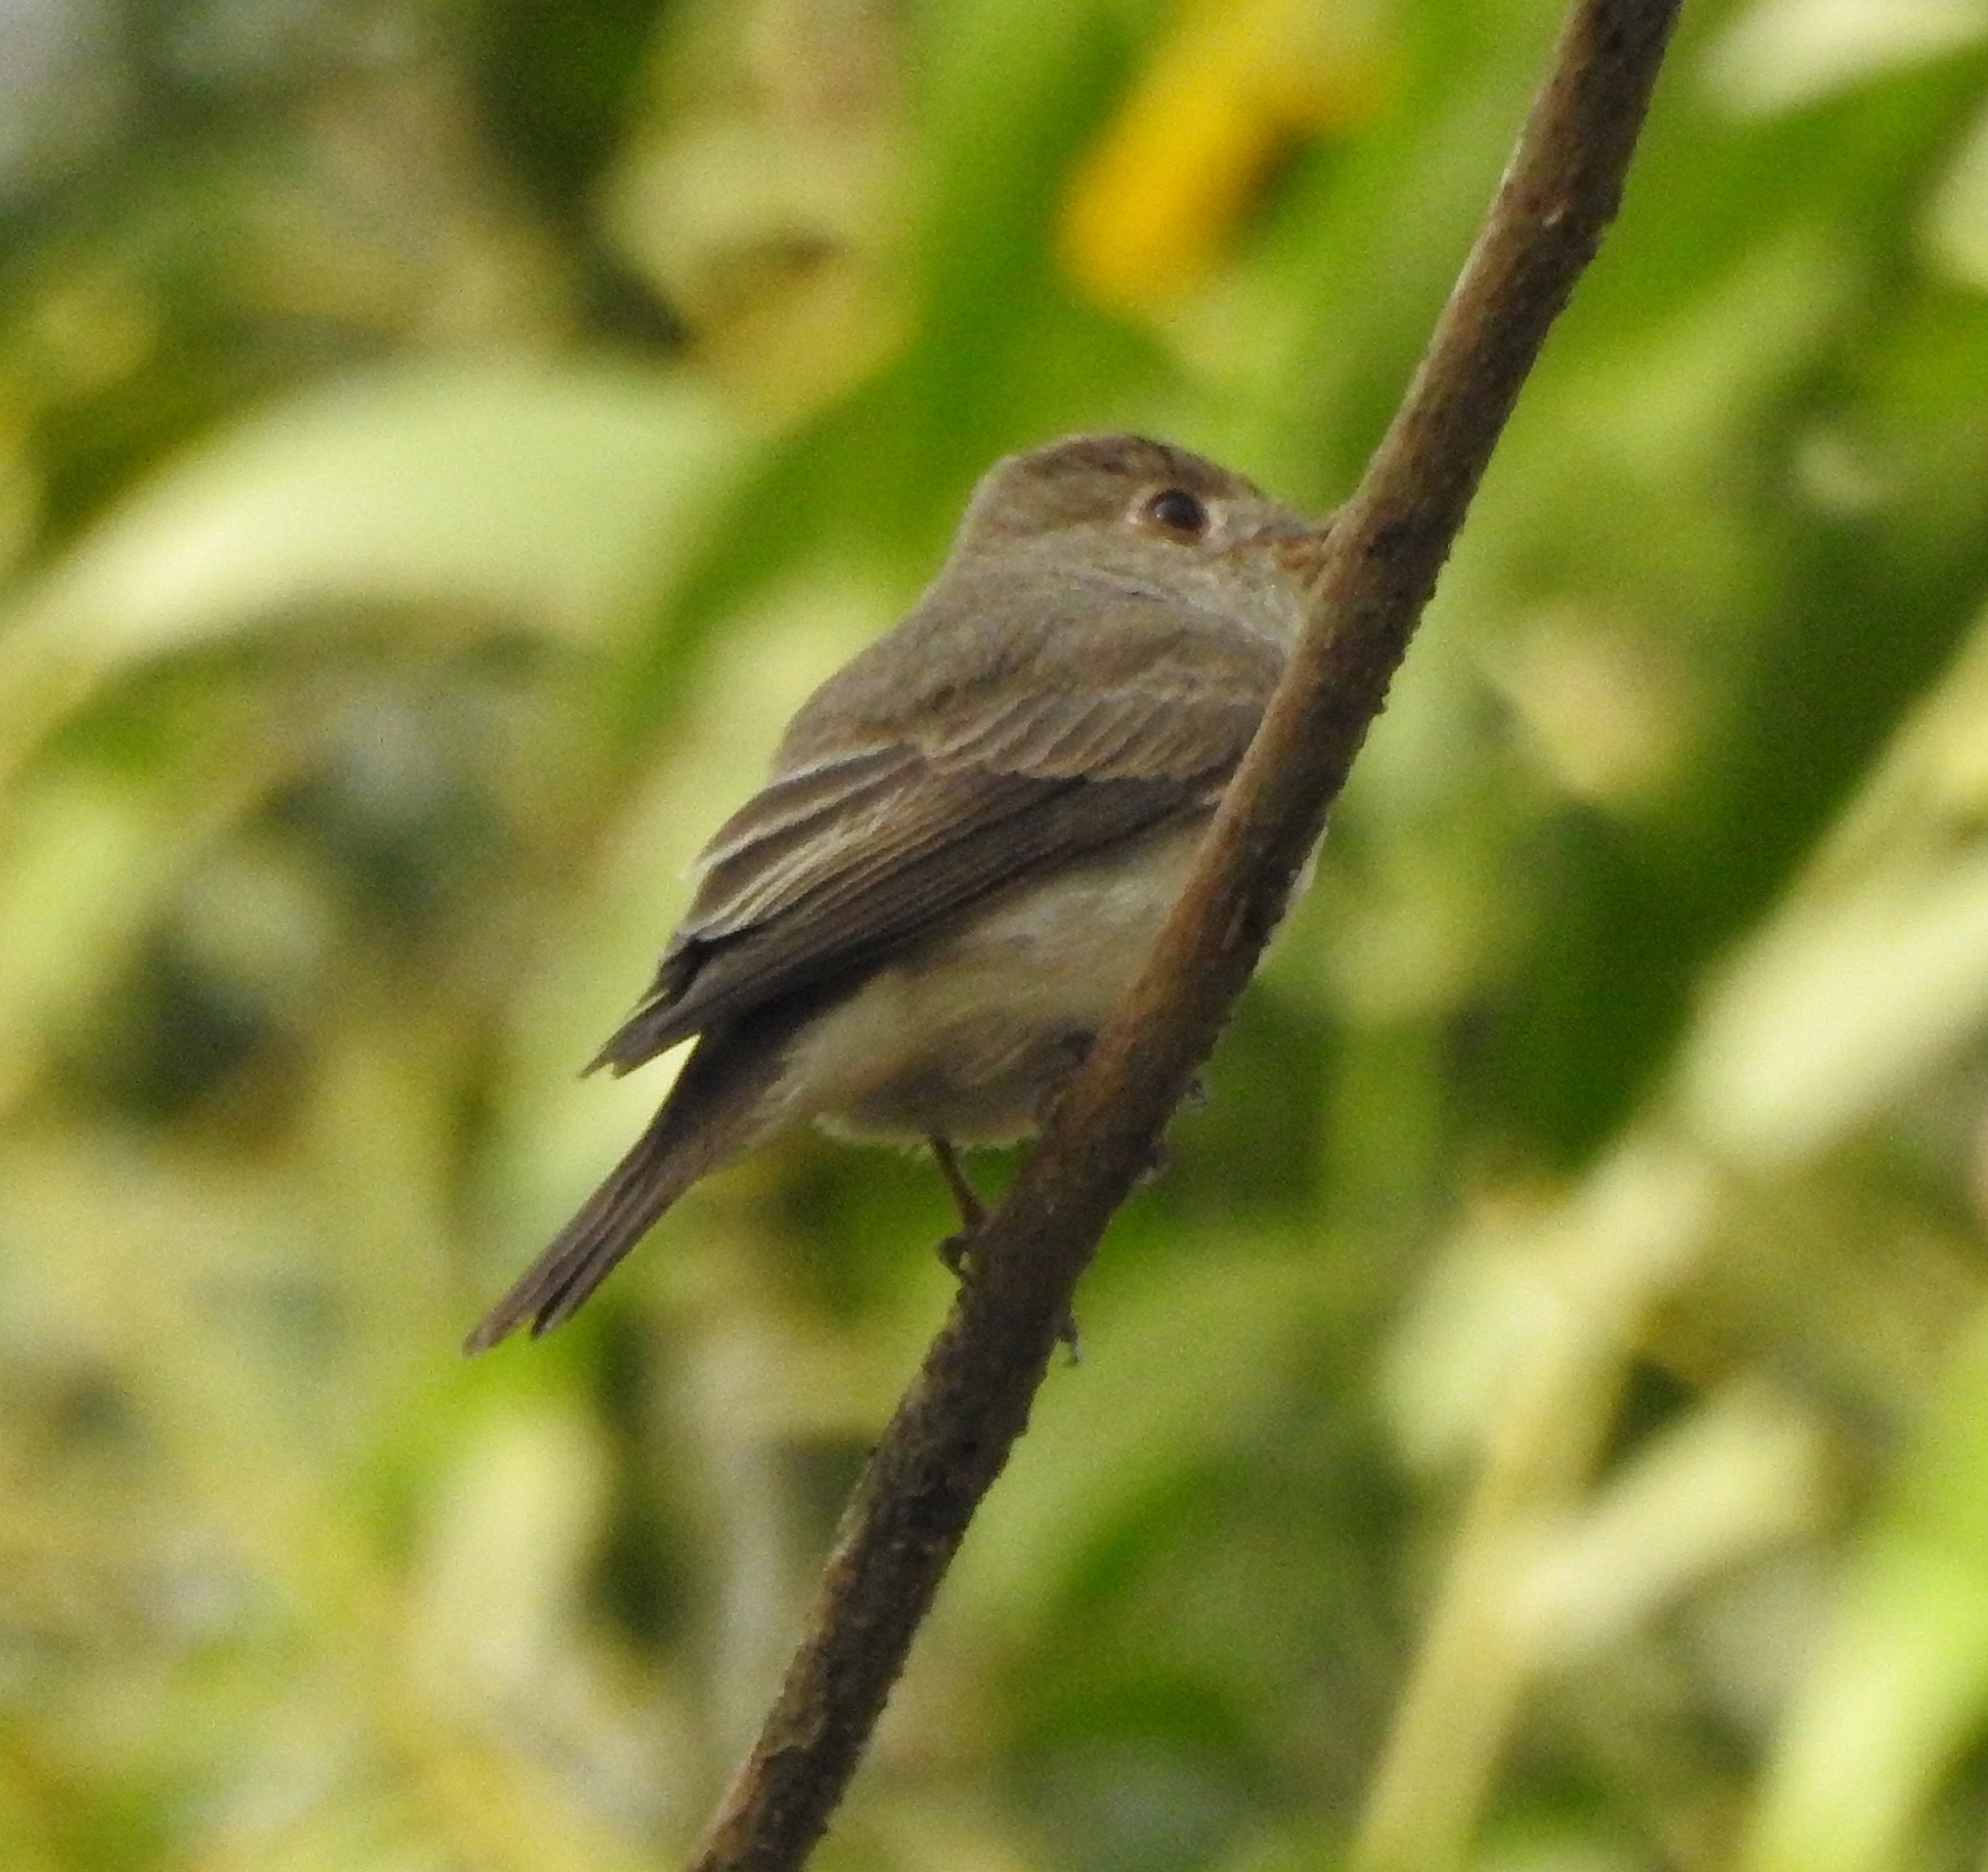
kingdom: Animalia
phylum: Chordata
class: Aves
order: Passeriformes
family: Muscicapidae
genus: Muscicapa
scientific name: Muscicapa latirostris
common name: Asian brown flycatcher
